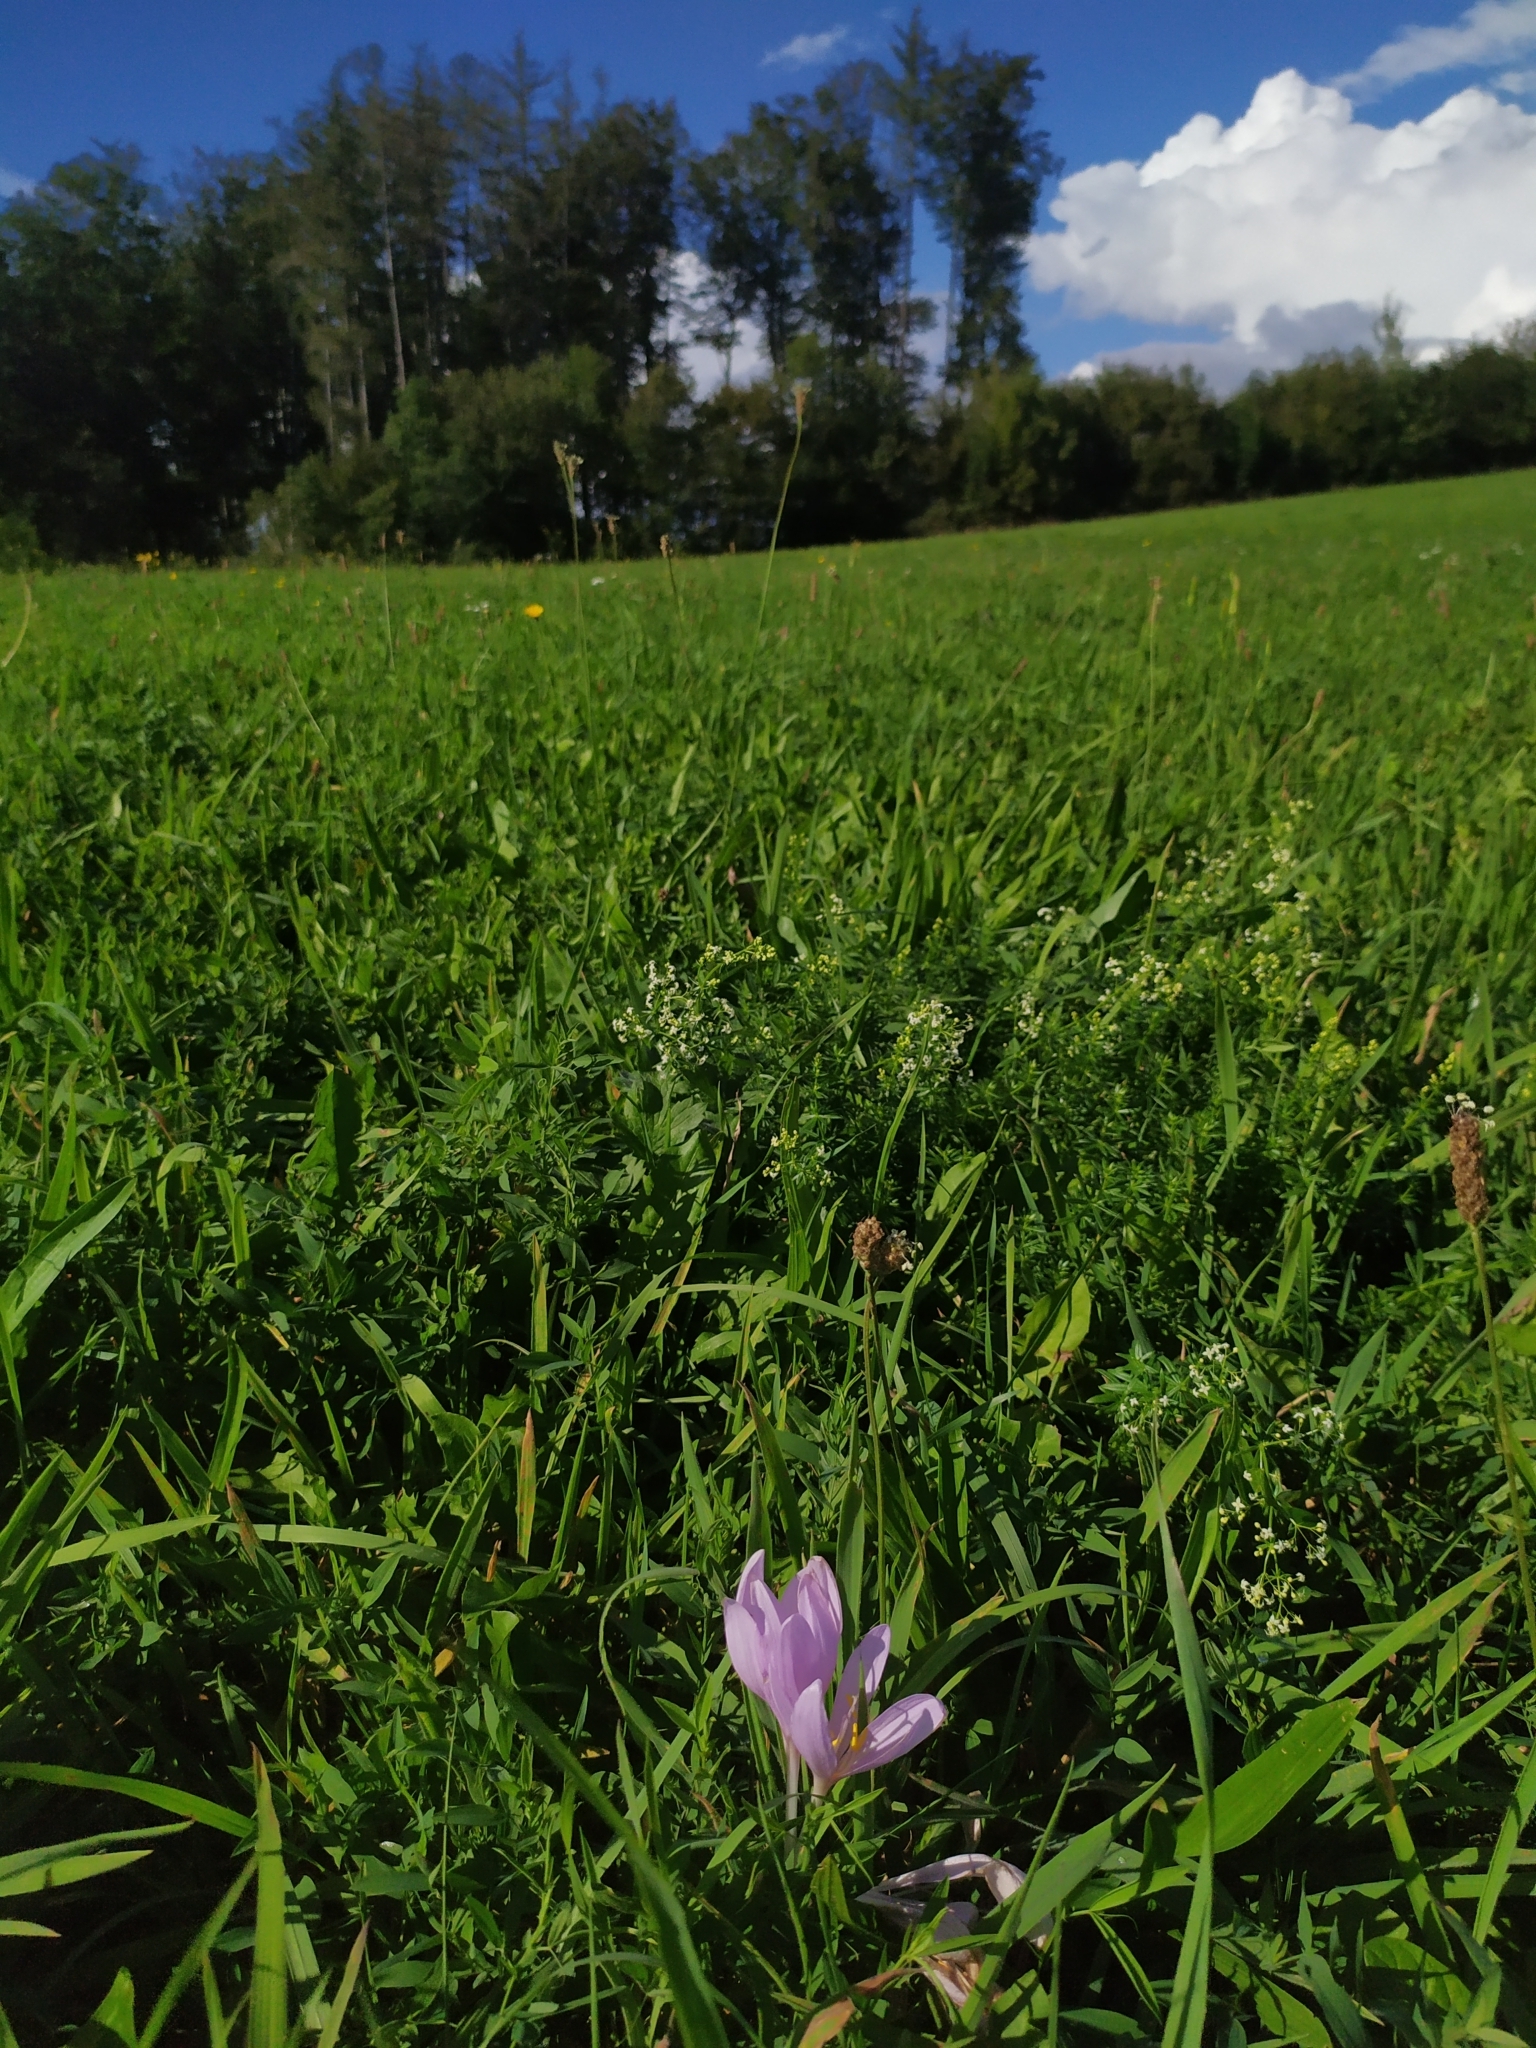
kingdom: Plantae
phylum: Tracheophyta
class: Liliopsida
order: Liliales
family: Colchicaceae
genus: Colchicum
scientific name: Colchicum autumnale
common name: Autumn crocus
